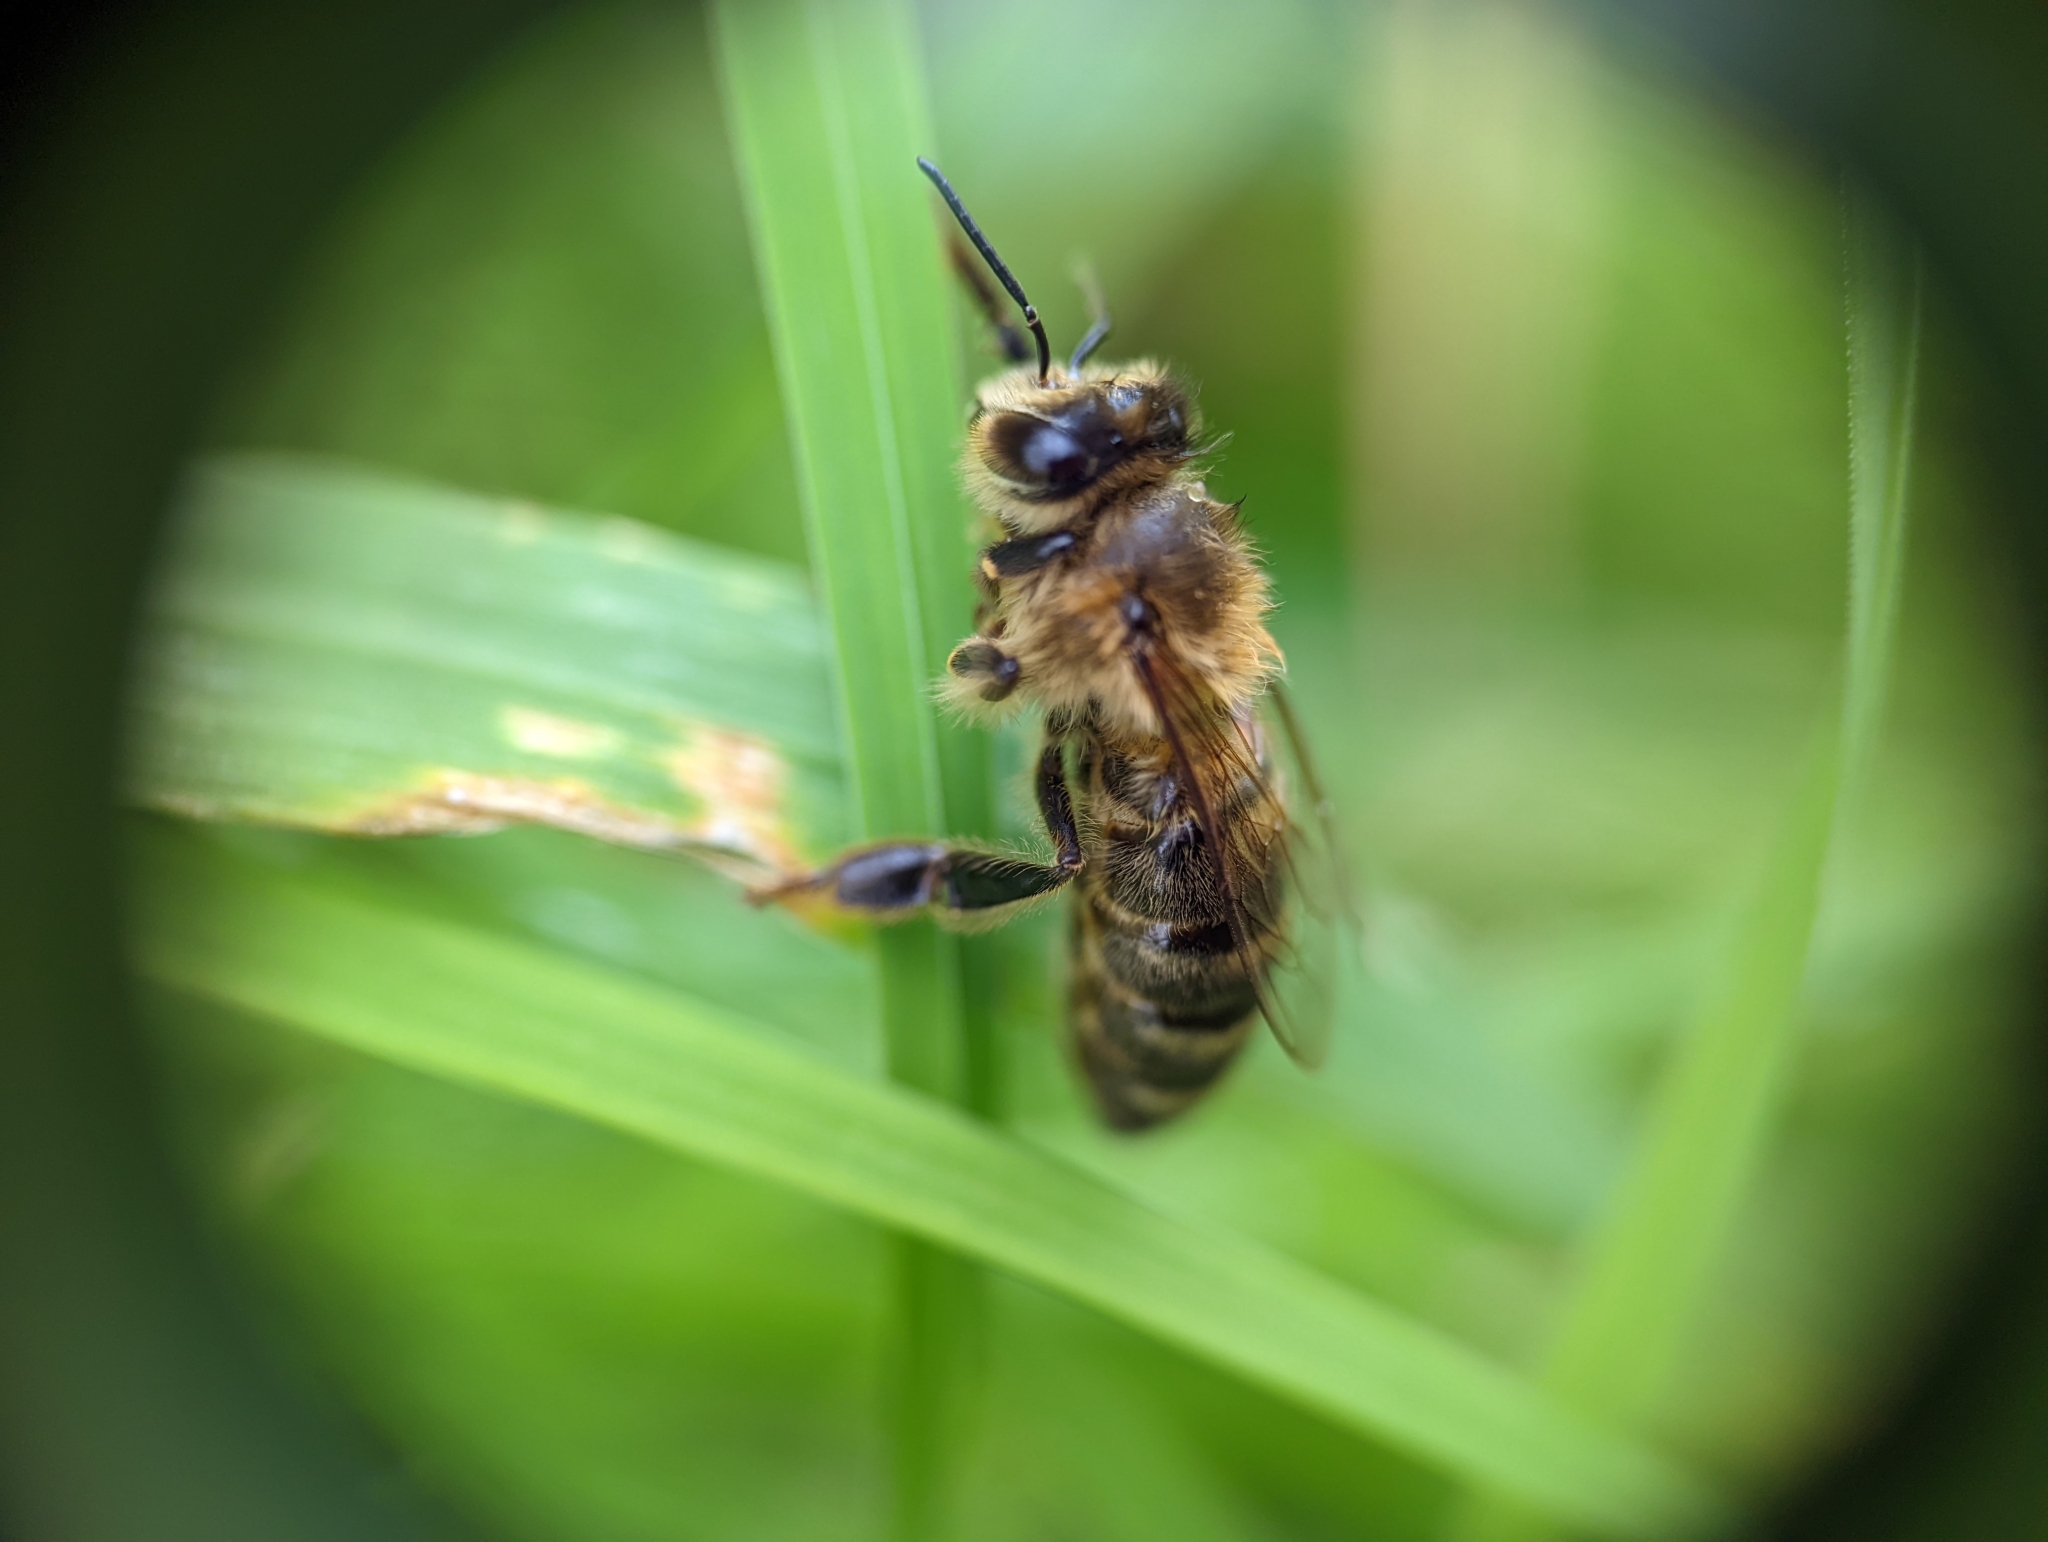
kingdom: Animalia
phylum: Arthropoda
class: Insecta
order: Hymenoptera
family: Apidae
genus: Apis
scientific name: Apis mellifera
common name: Honey bee
